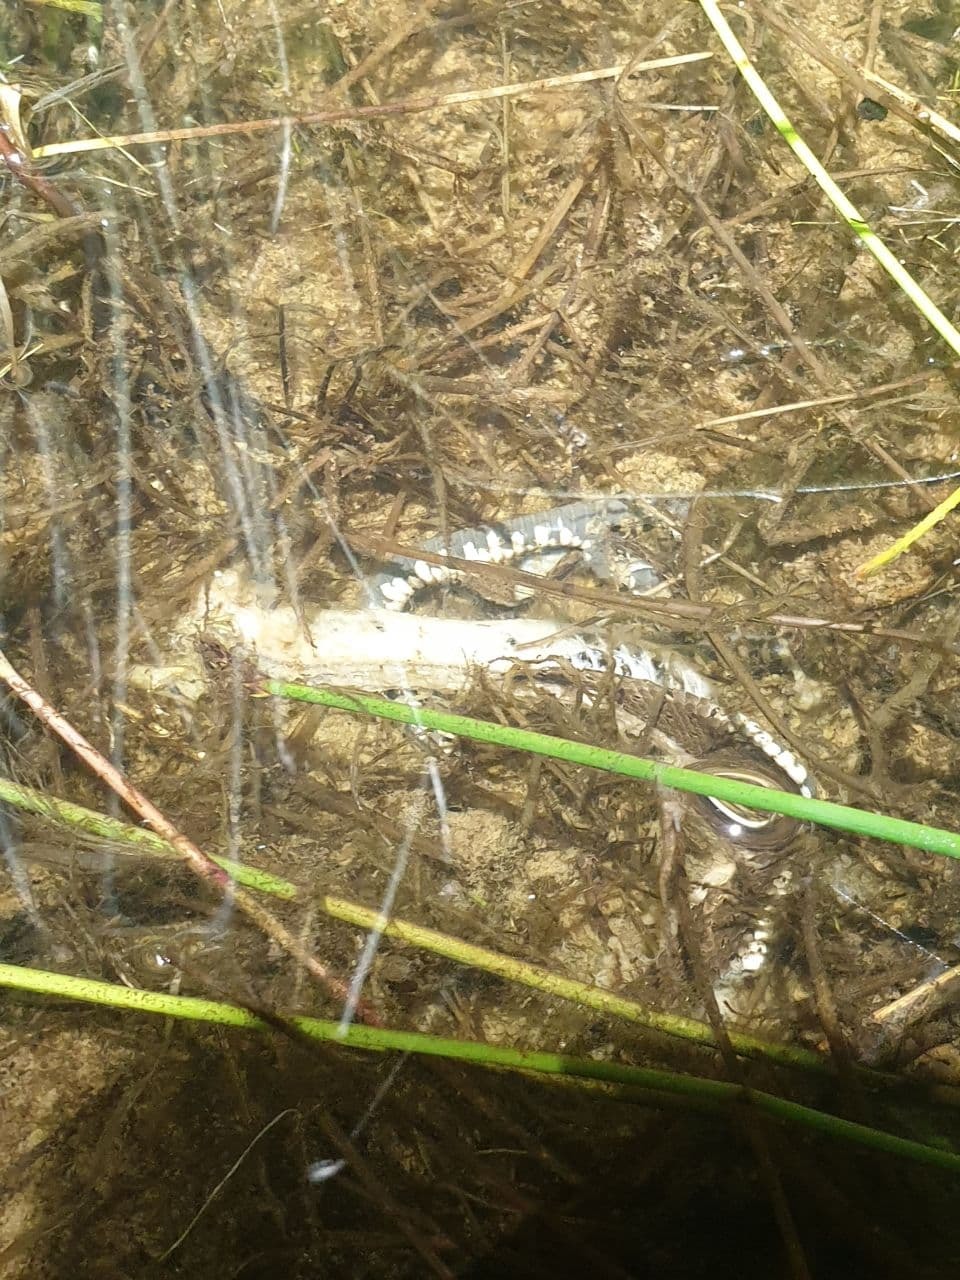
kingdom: Animalia
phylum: Chordata
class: Squamata
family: Colubridae
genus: Natrix
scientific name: Natrix natrix
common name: Grass snake
